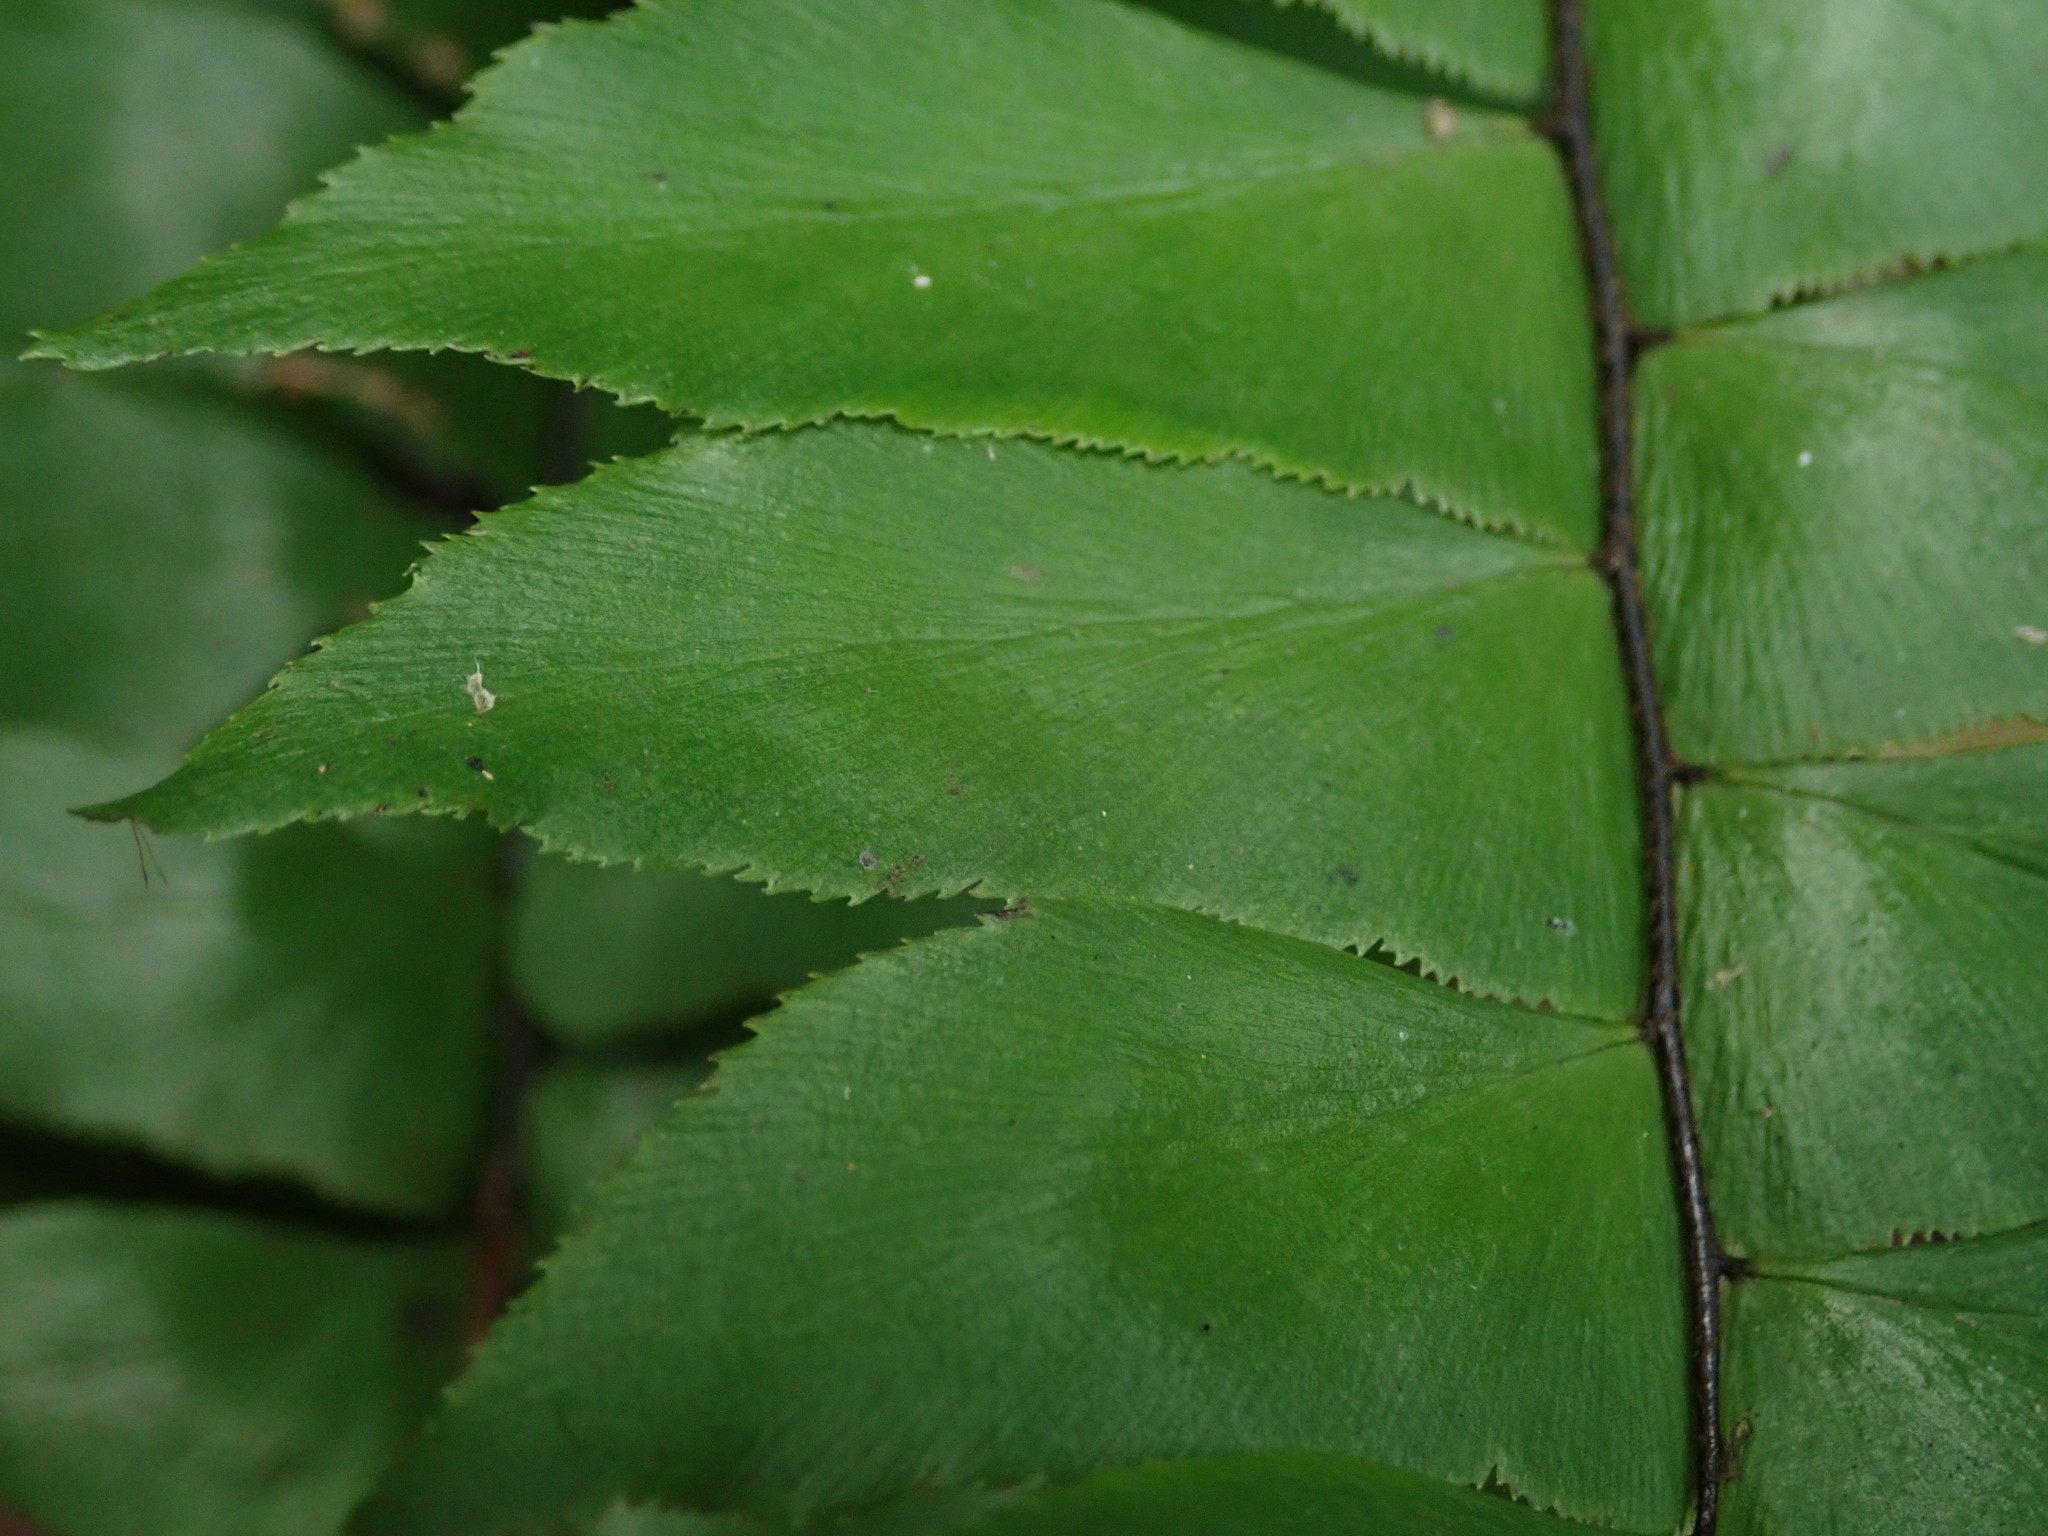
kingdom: Plantae
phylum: Tracheophyta
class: Polypodiopsida
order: Polypodiales
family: Pteridaceae
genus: Adiantum
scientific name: Adiantum latifolium
